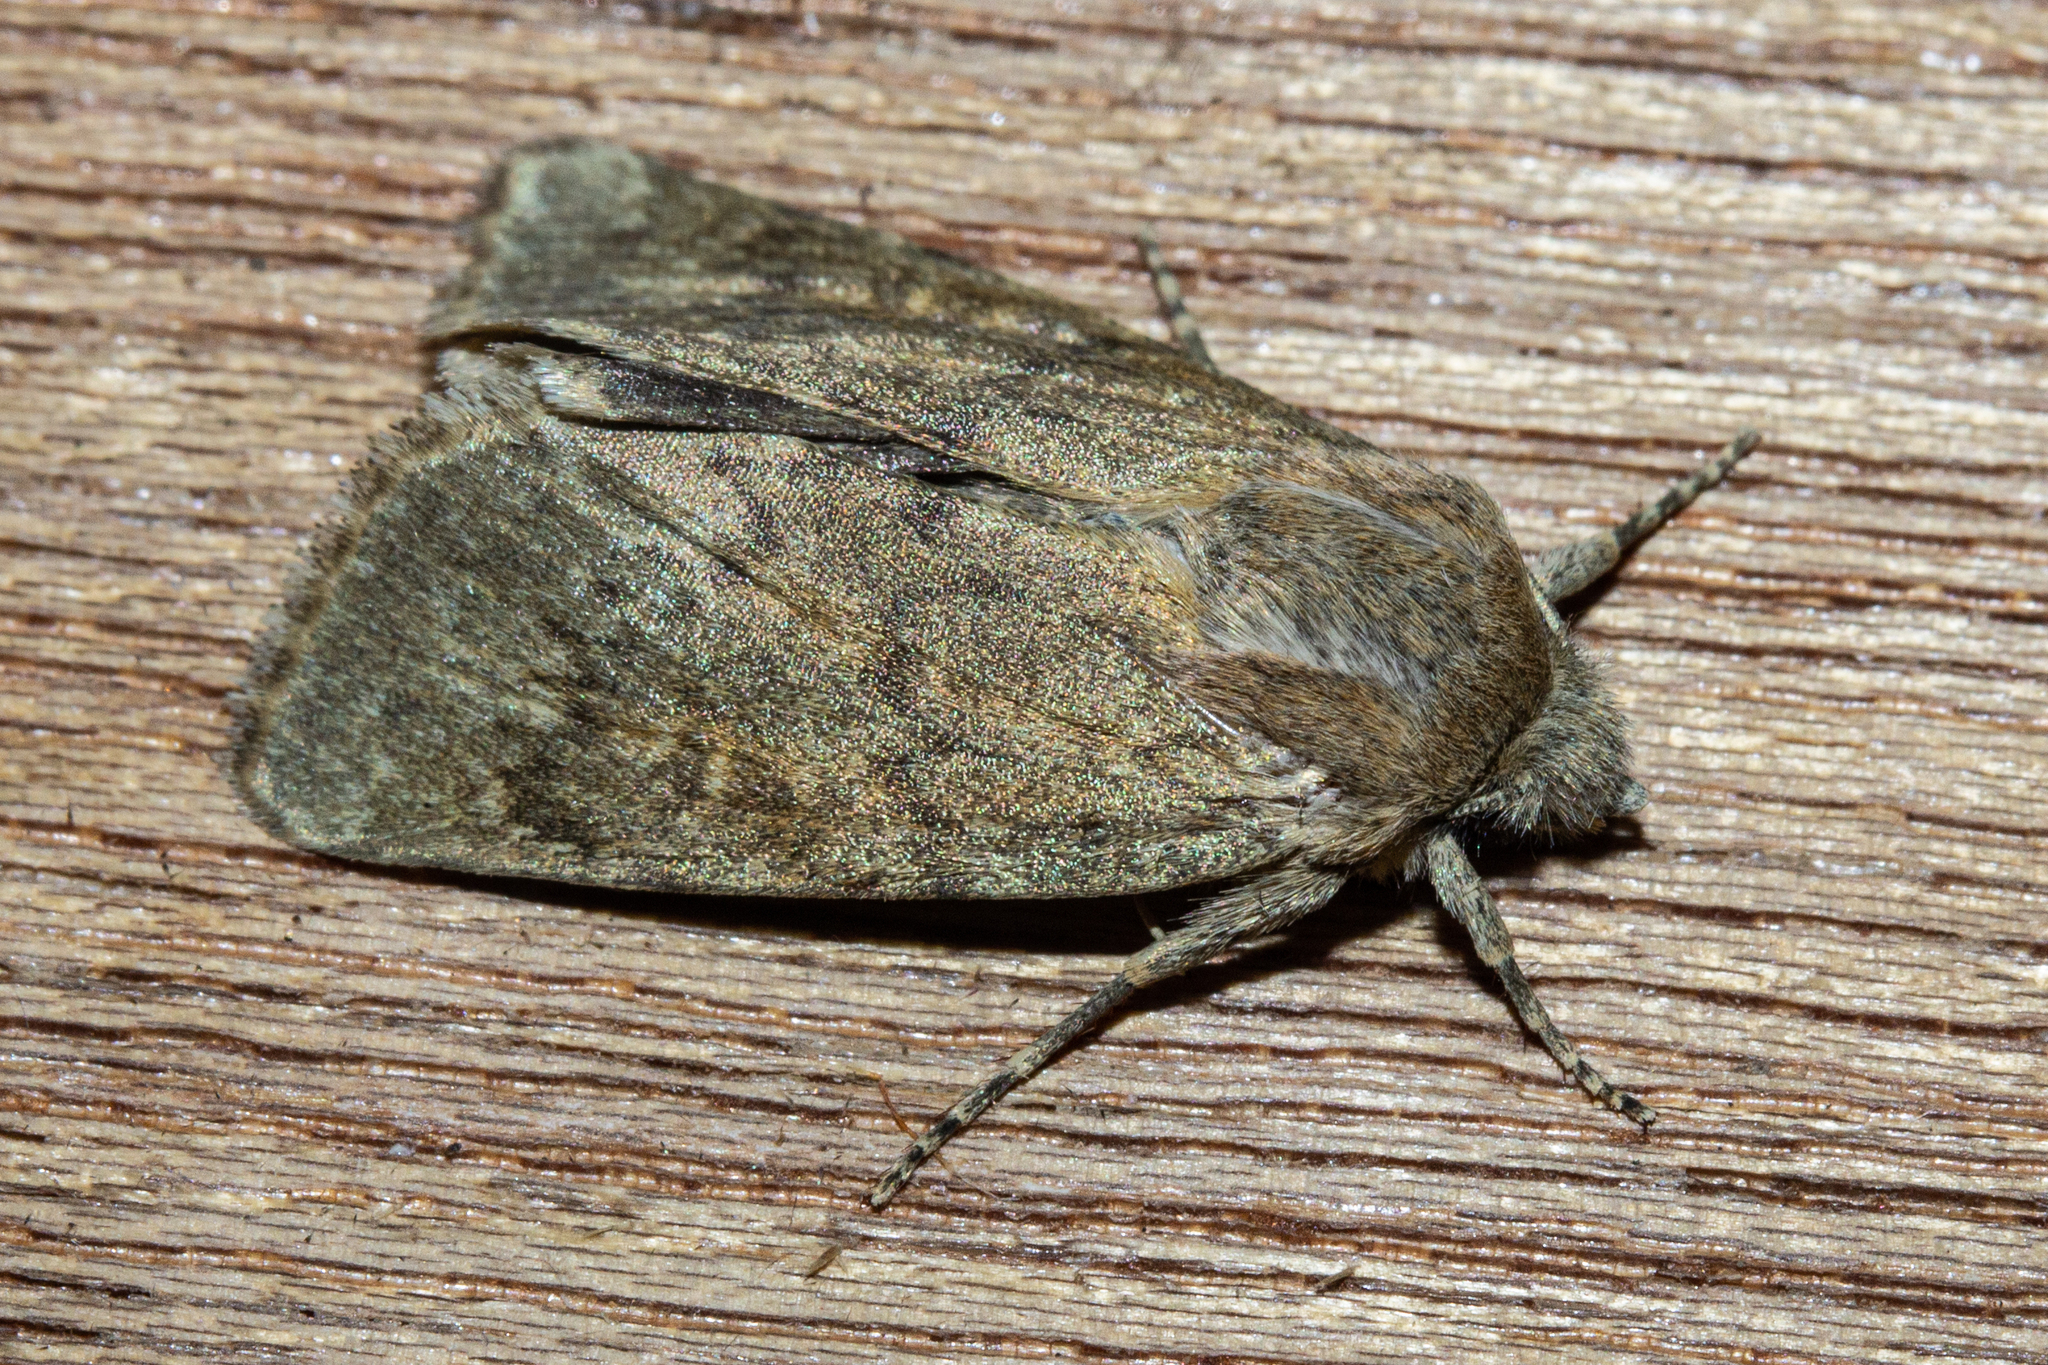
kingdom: Animalia
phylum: Arthropoda
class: Insecta
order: Lepidoptera
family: Noctuidae
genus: Physetica
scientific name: Physetica caerulea
